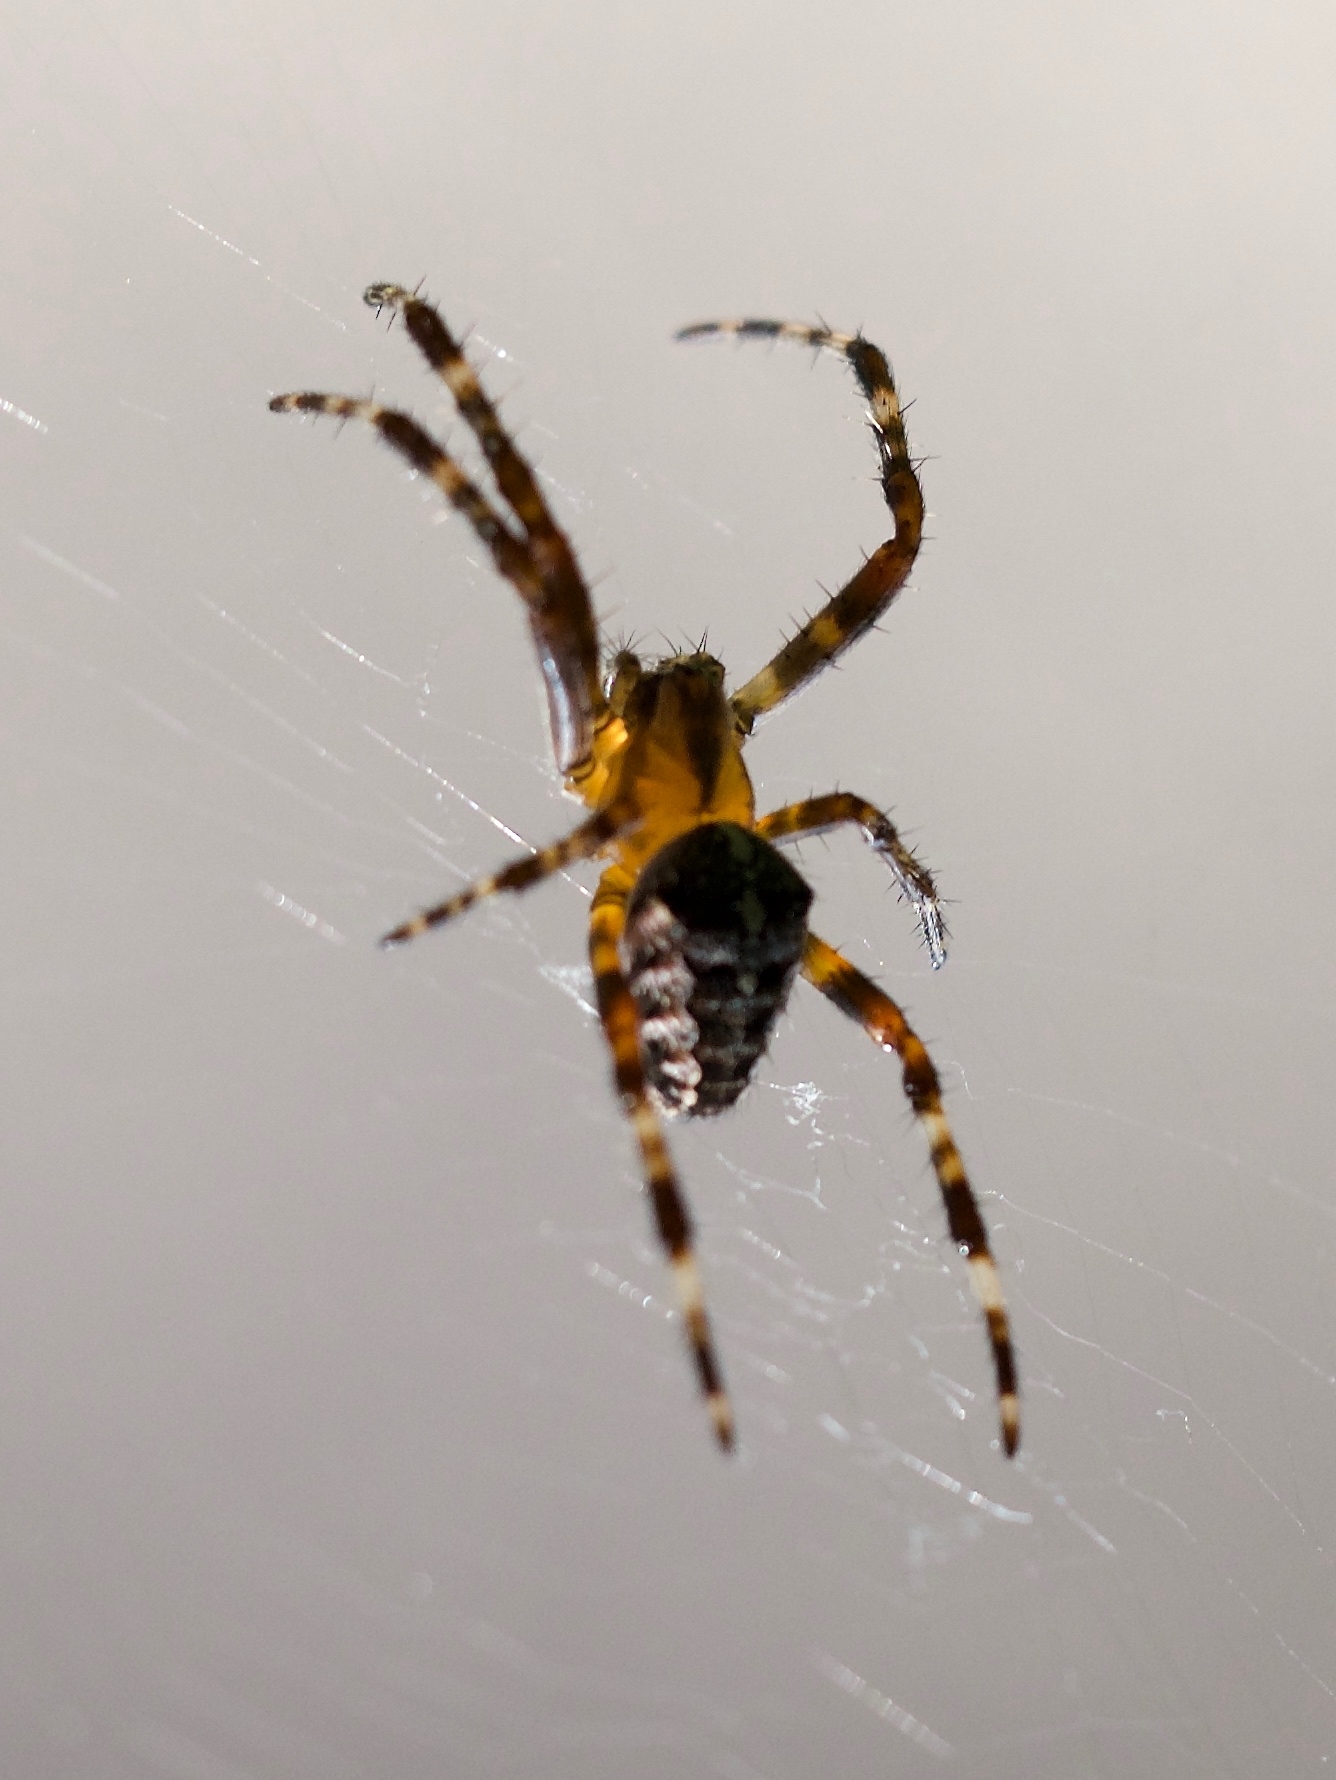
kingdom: Animalia
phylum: Arthropoda
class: Arachnida
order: Araneae
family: Araneidae
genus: Araneus
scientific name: Araneus diadematus
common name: Cross orbweaver
